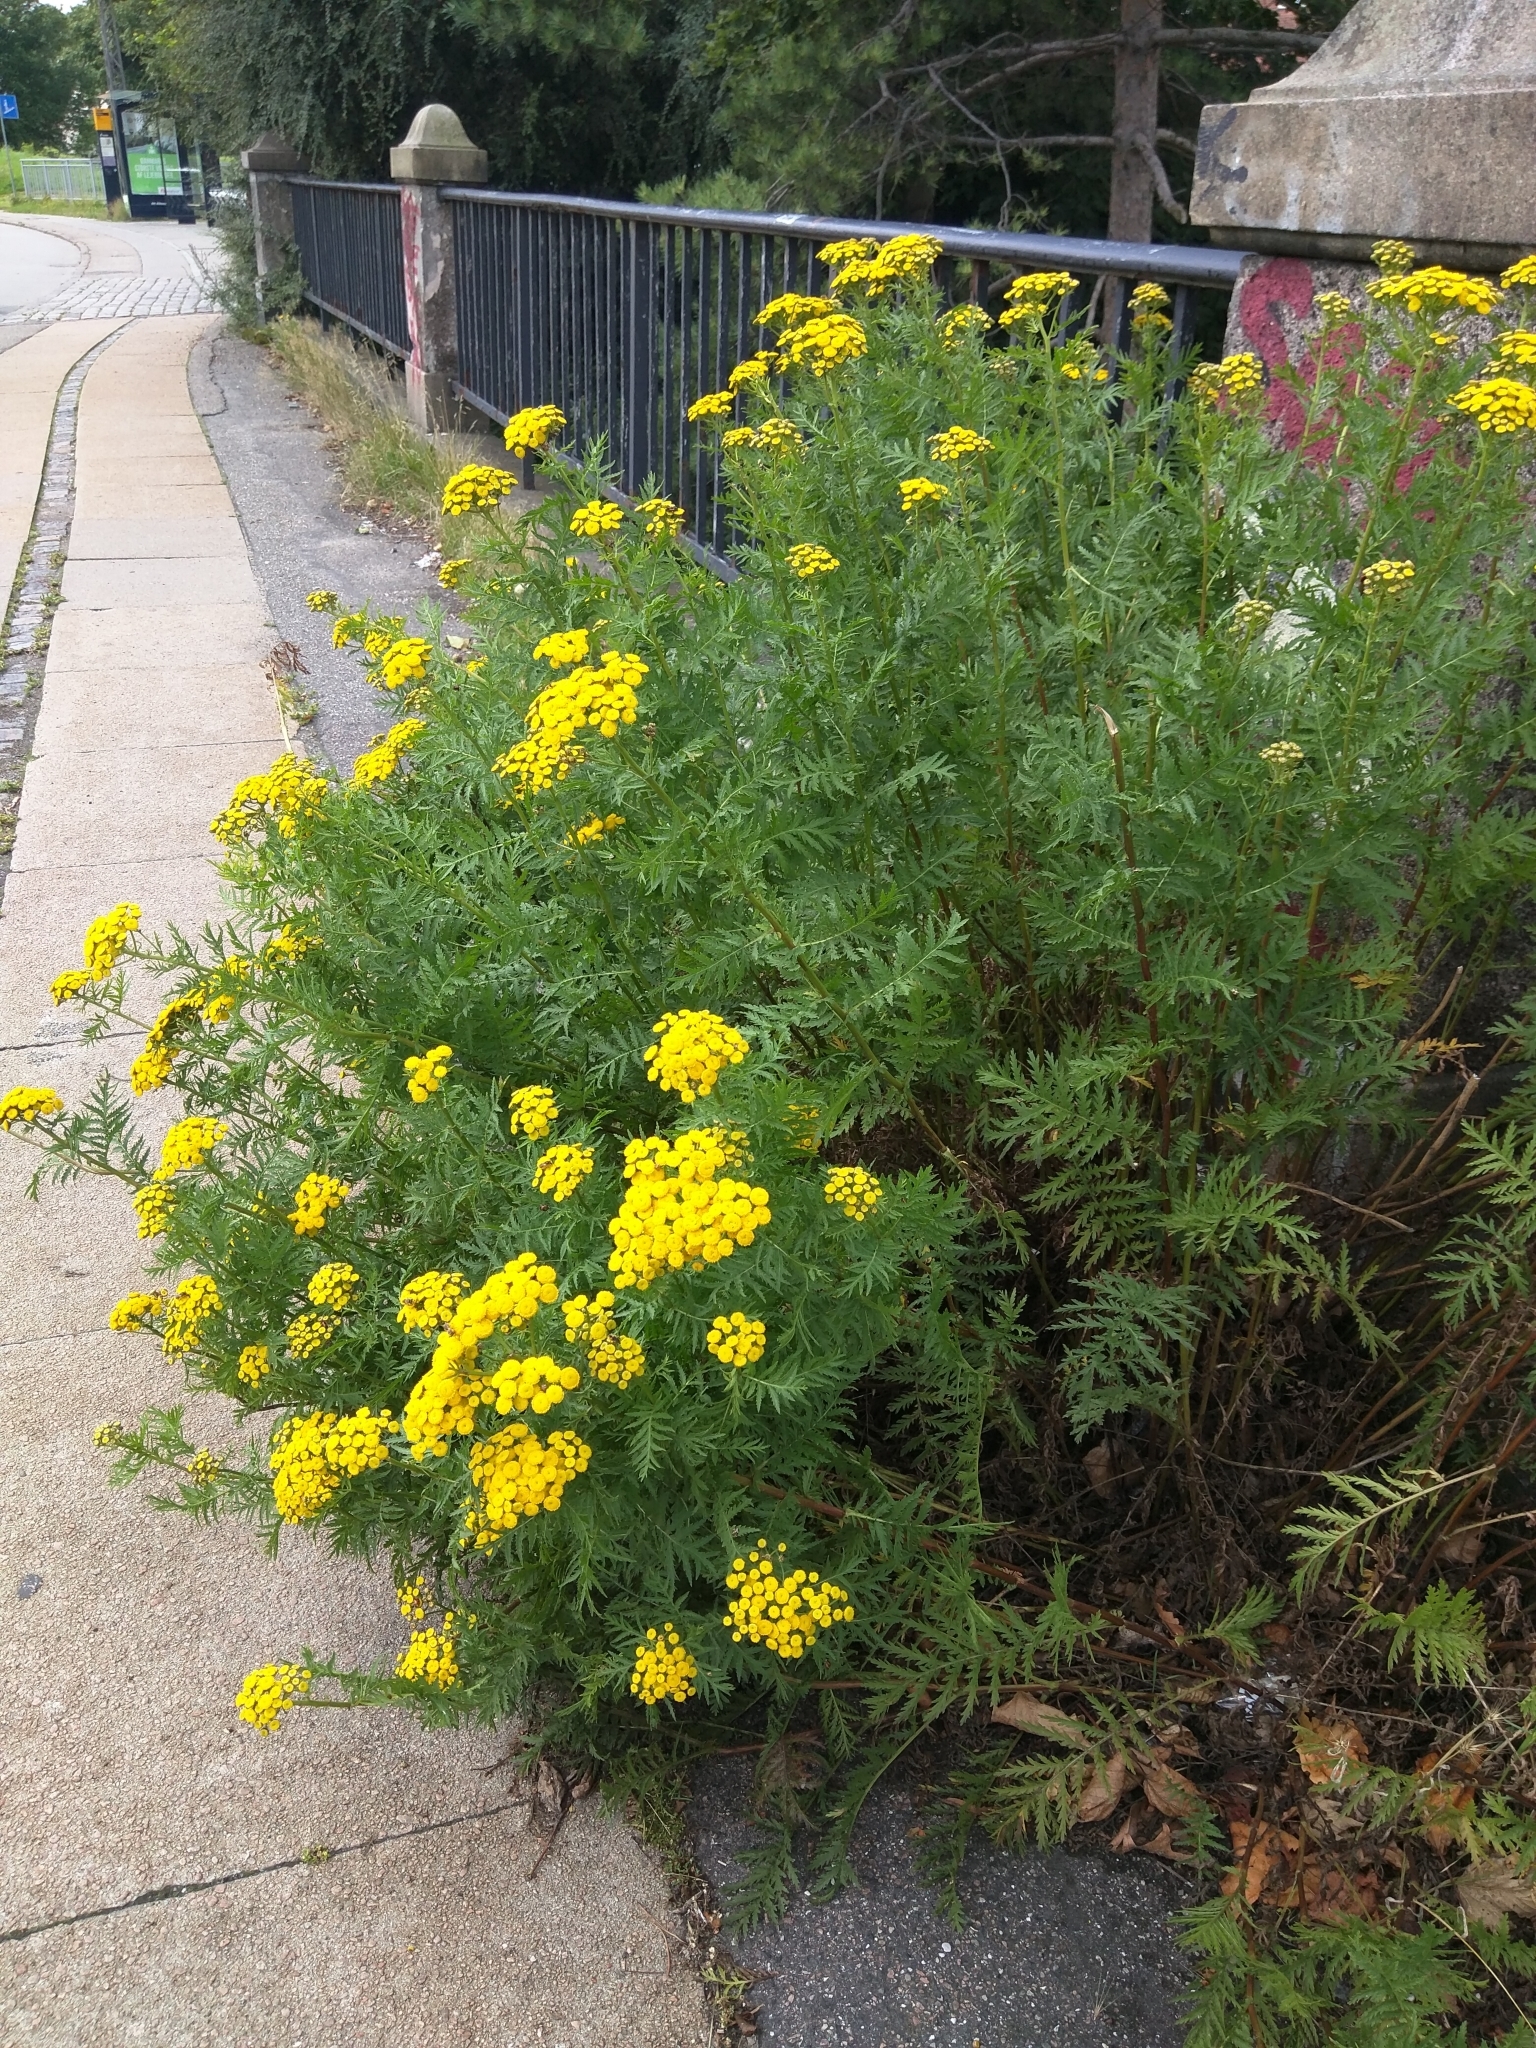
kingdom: Plantae
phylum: Tracheophyta
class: Magnoliopsida
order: Asterales
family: Asteraceae
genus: Tanacetum
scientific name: Tanacetum vulgare
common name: Common tansy
